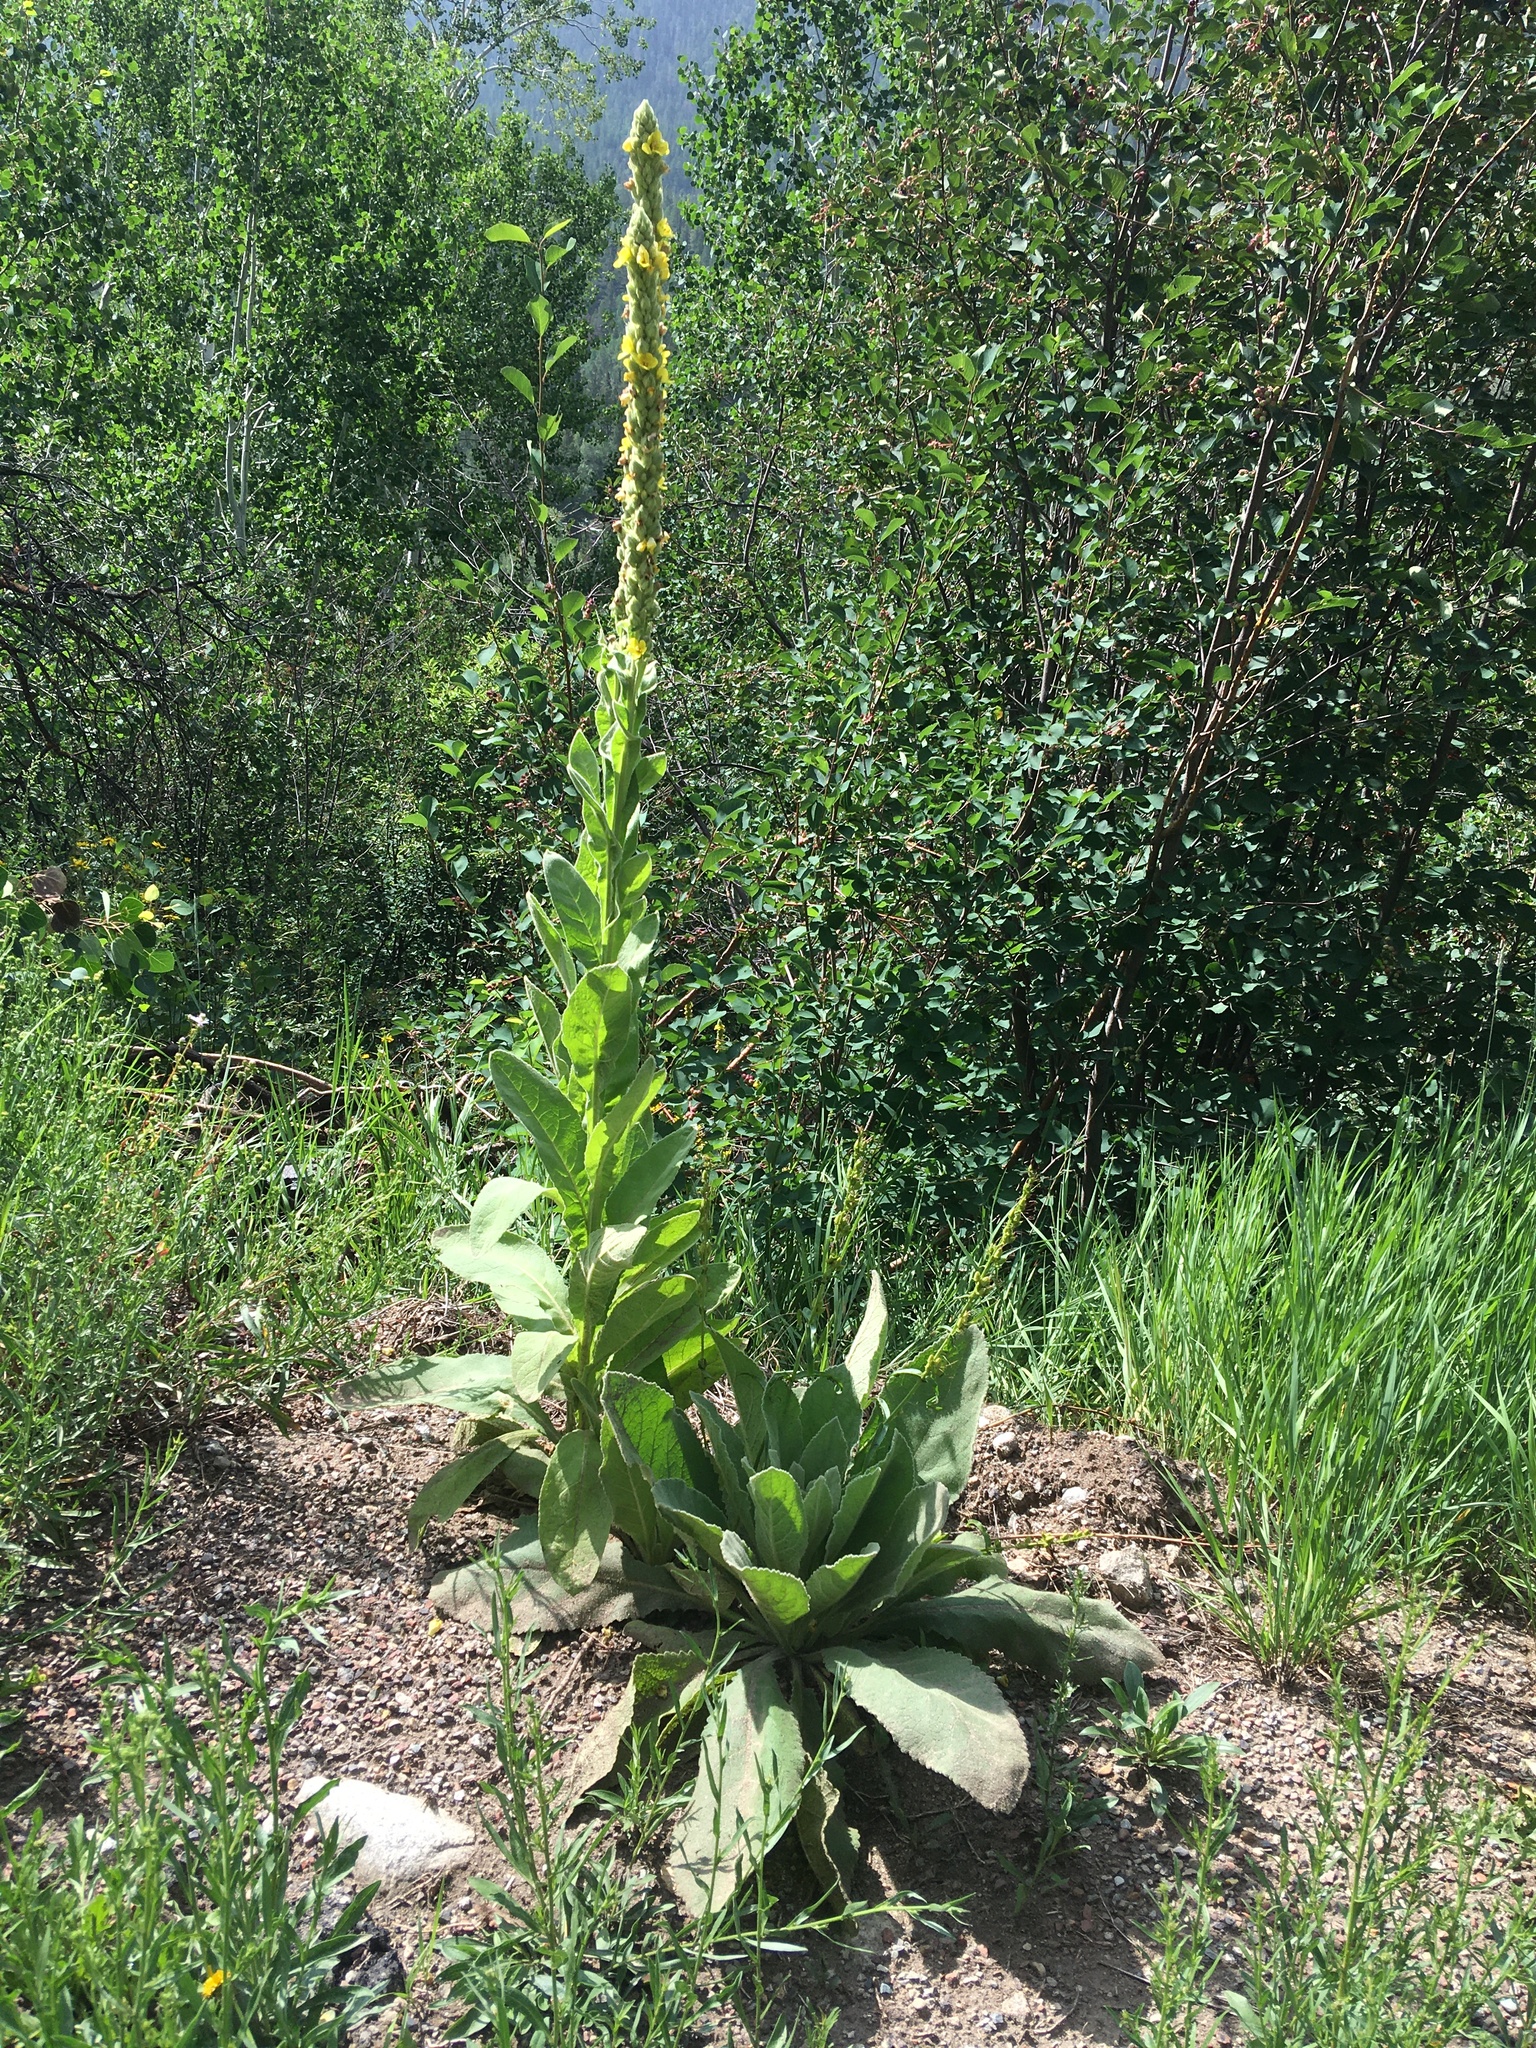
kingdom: Plantae
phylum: Tracheophyta
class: Magnoliopsida
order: Lamiales
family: Scrophulariaceae
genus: Verbascum
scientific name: Verbascum thapsus
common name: Common mullein
